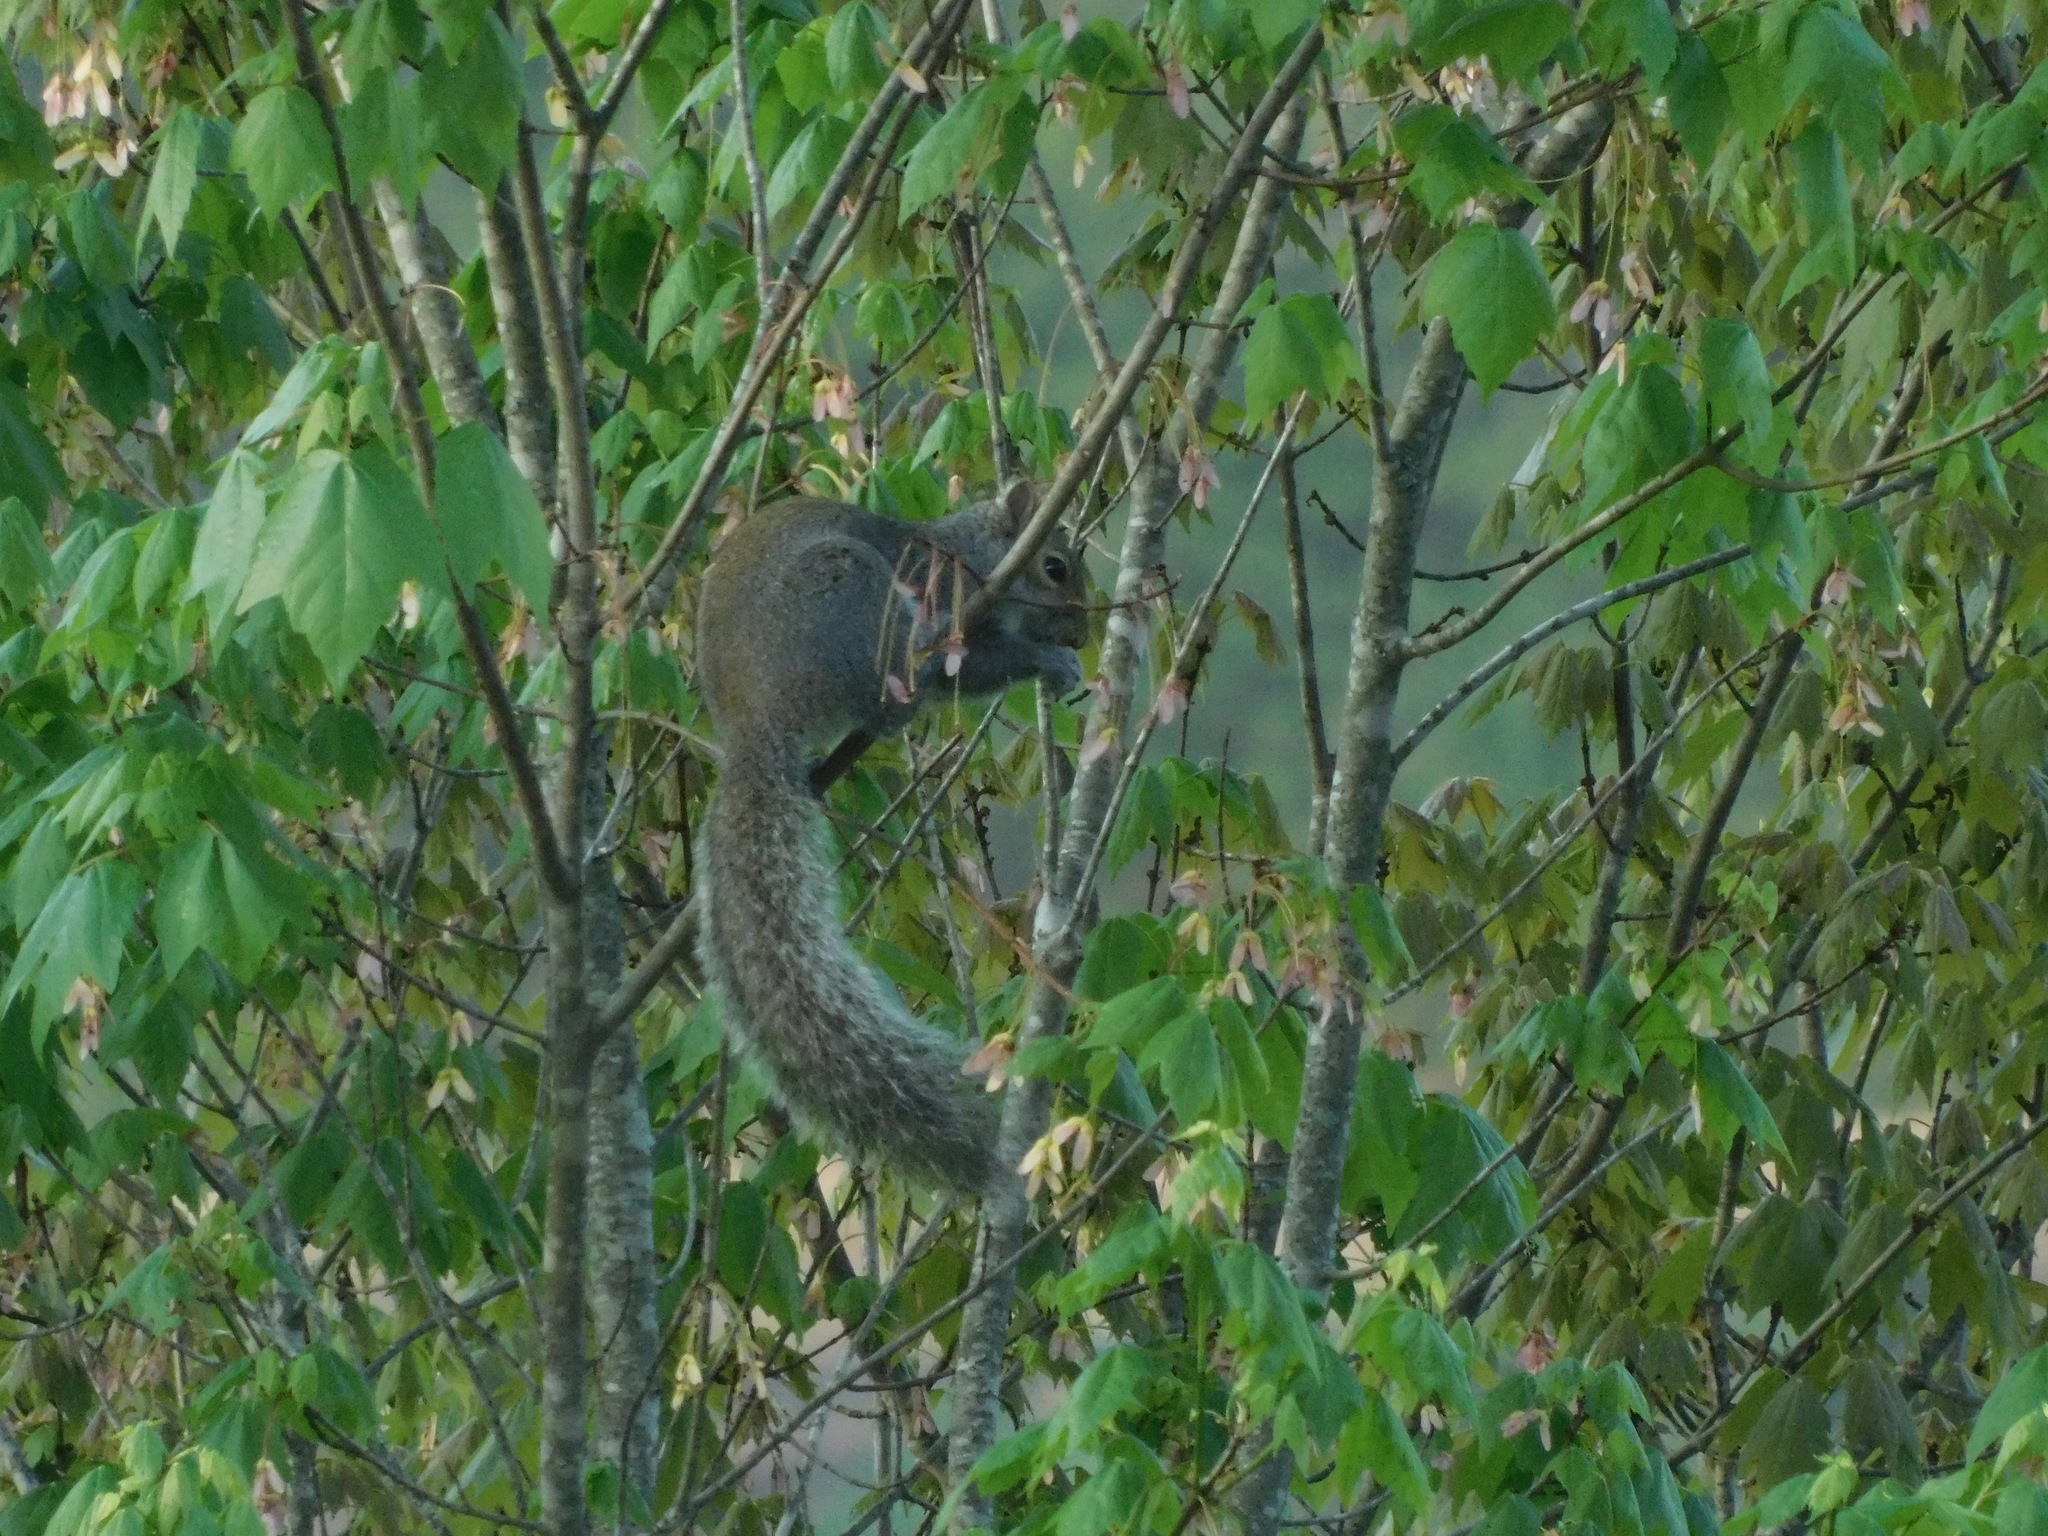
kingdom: Animalia
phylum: Chordata
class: Mammalia
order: Rodentia
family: Sciuridae
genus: Sciurus
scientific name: Sciurus carolinensis
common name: Eastern gray squirrel
